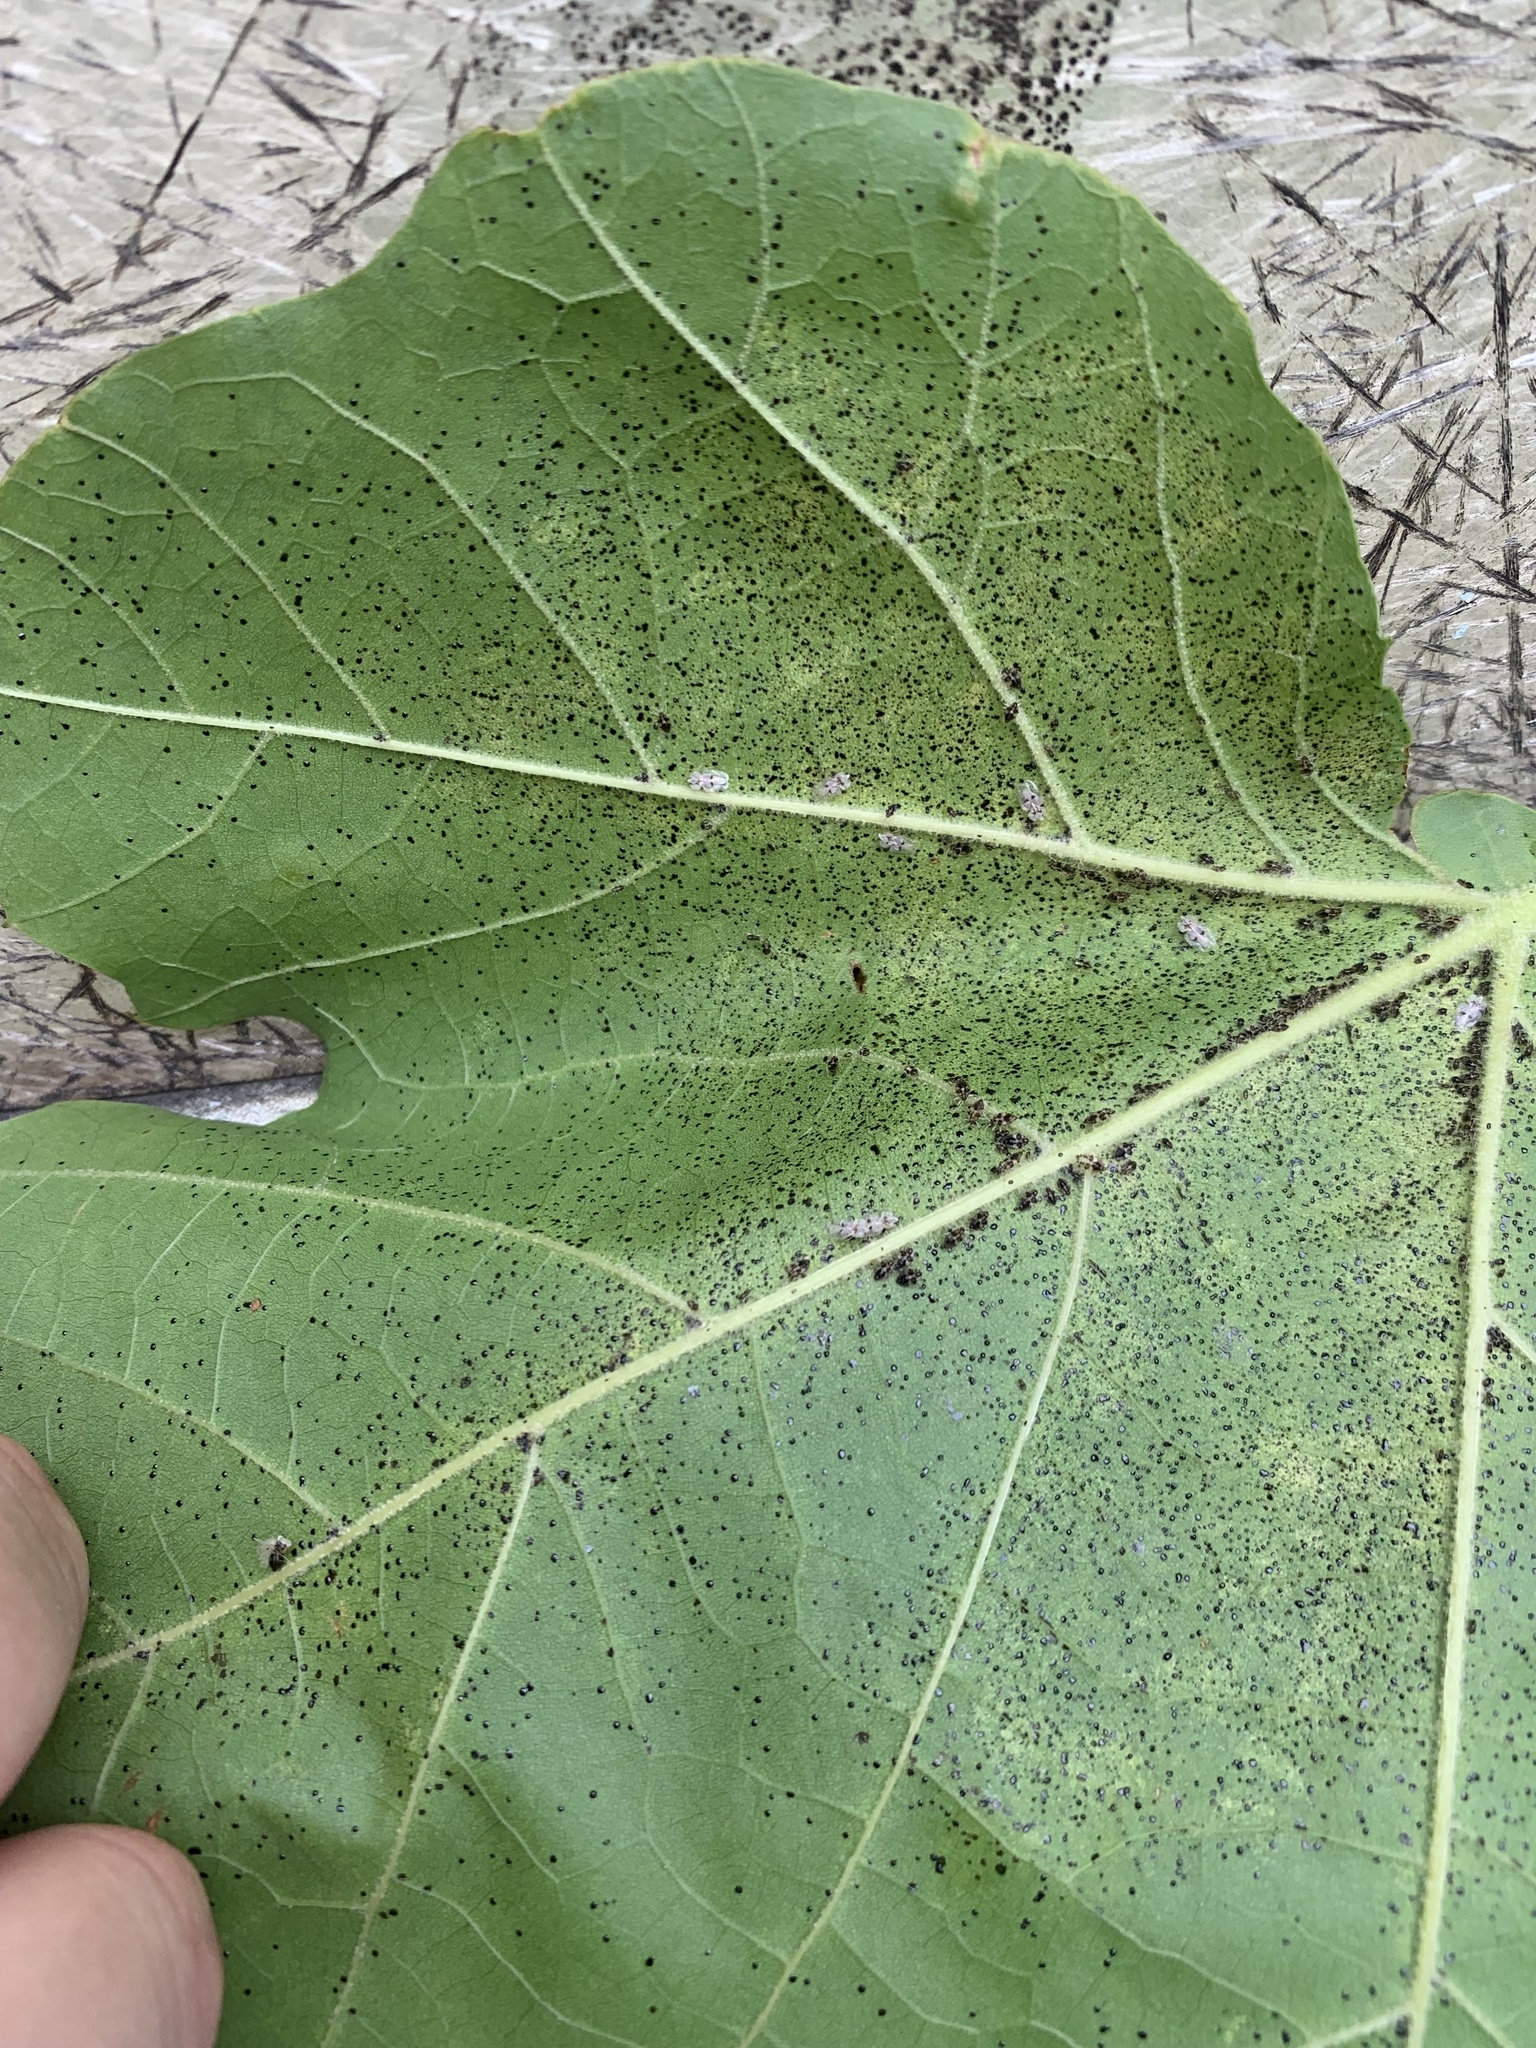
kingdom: Animalia
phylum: Arthropoda
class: Insecta
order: Hemiptera
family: Tingidae
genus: Corythucha
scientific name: Corythucha ciliata
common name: Sycamore lace bug
